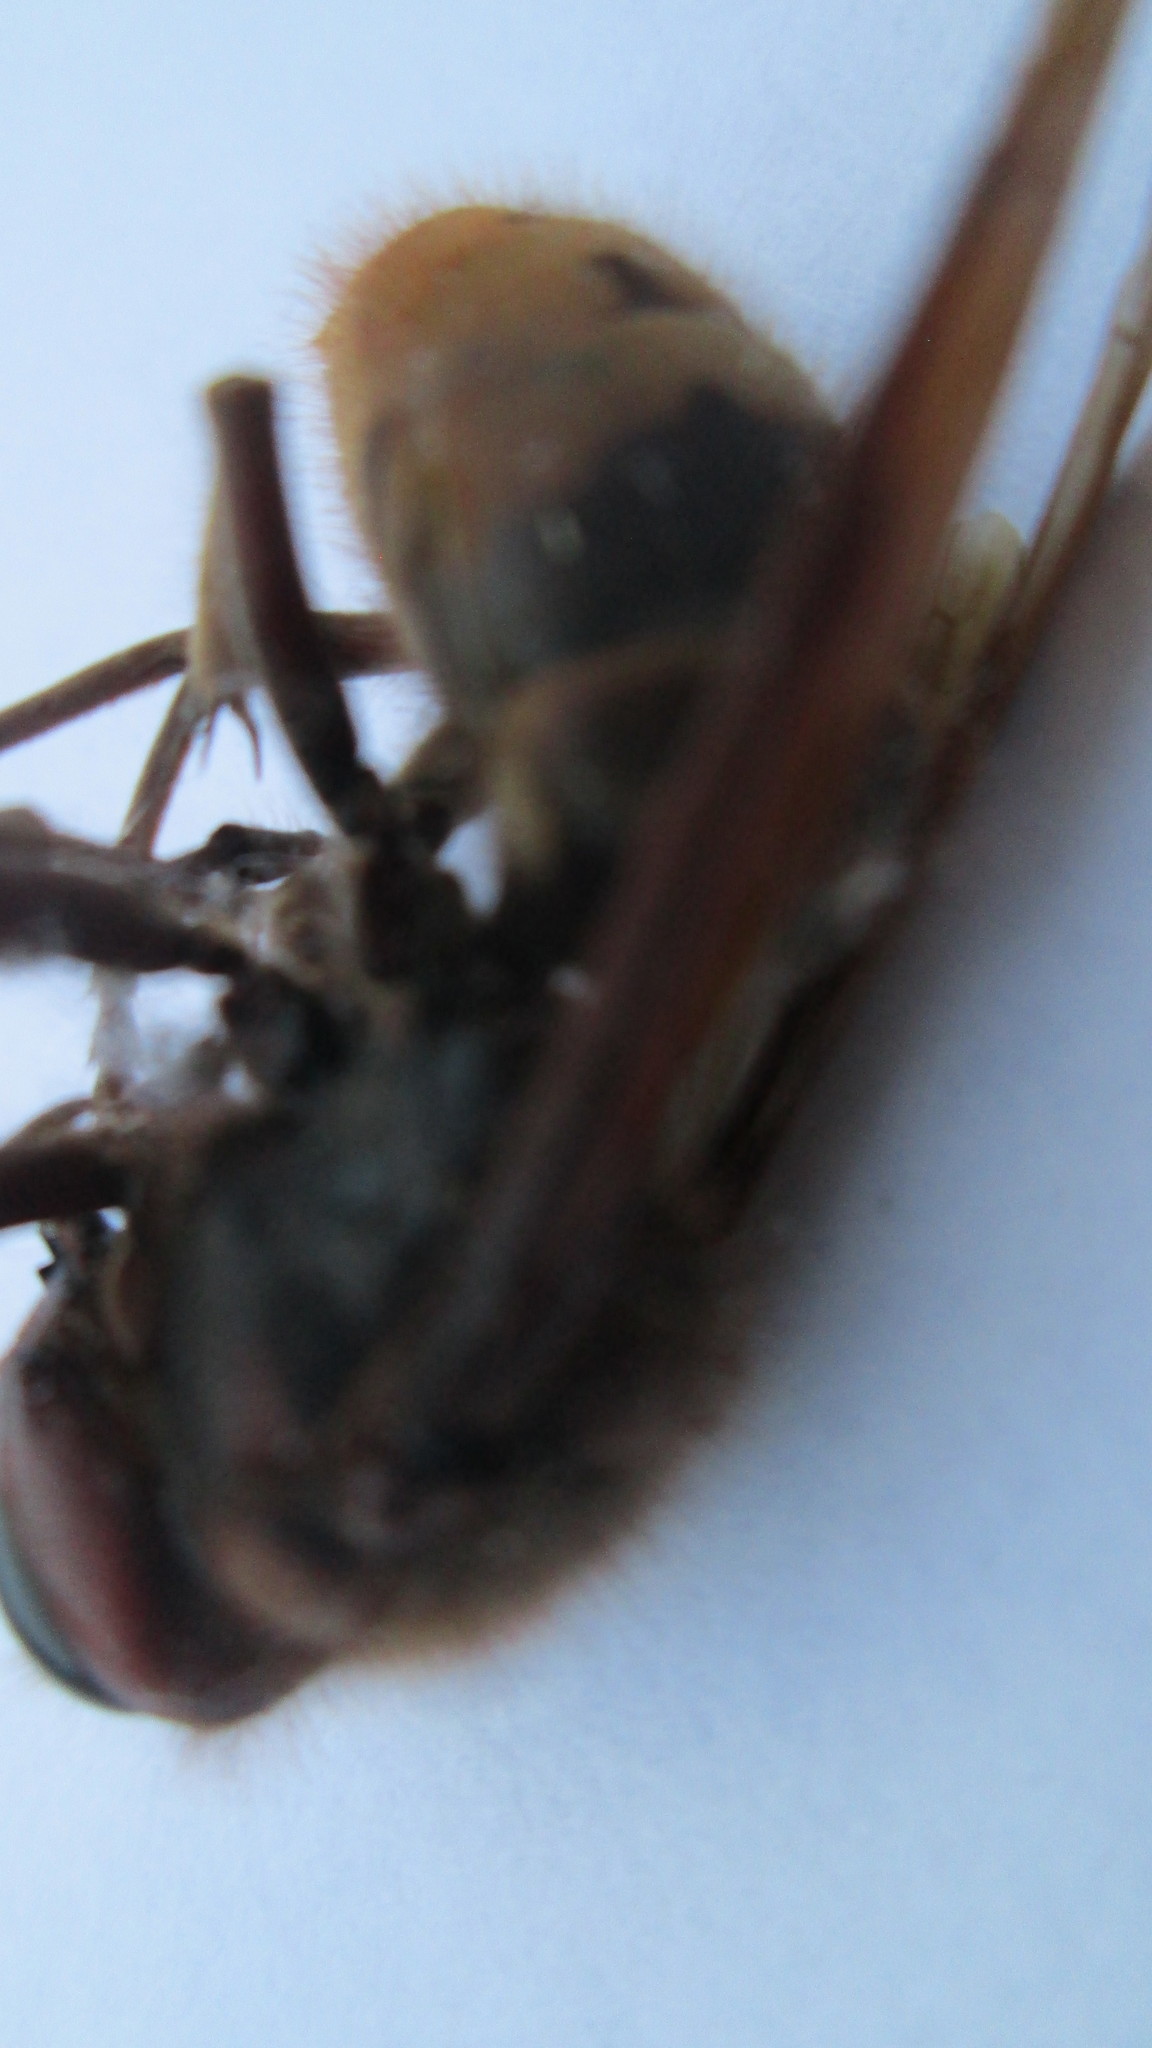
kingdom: Animalia
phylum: Arthropoda
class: Insecta
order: Hymenoptera
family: Vespidae
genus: Vespa
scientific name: Vespa crabro
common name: Hornet
